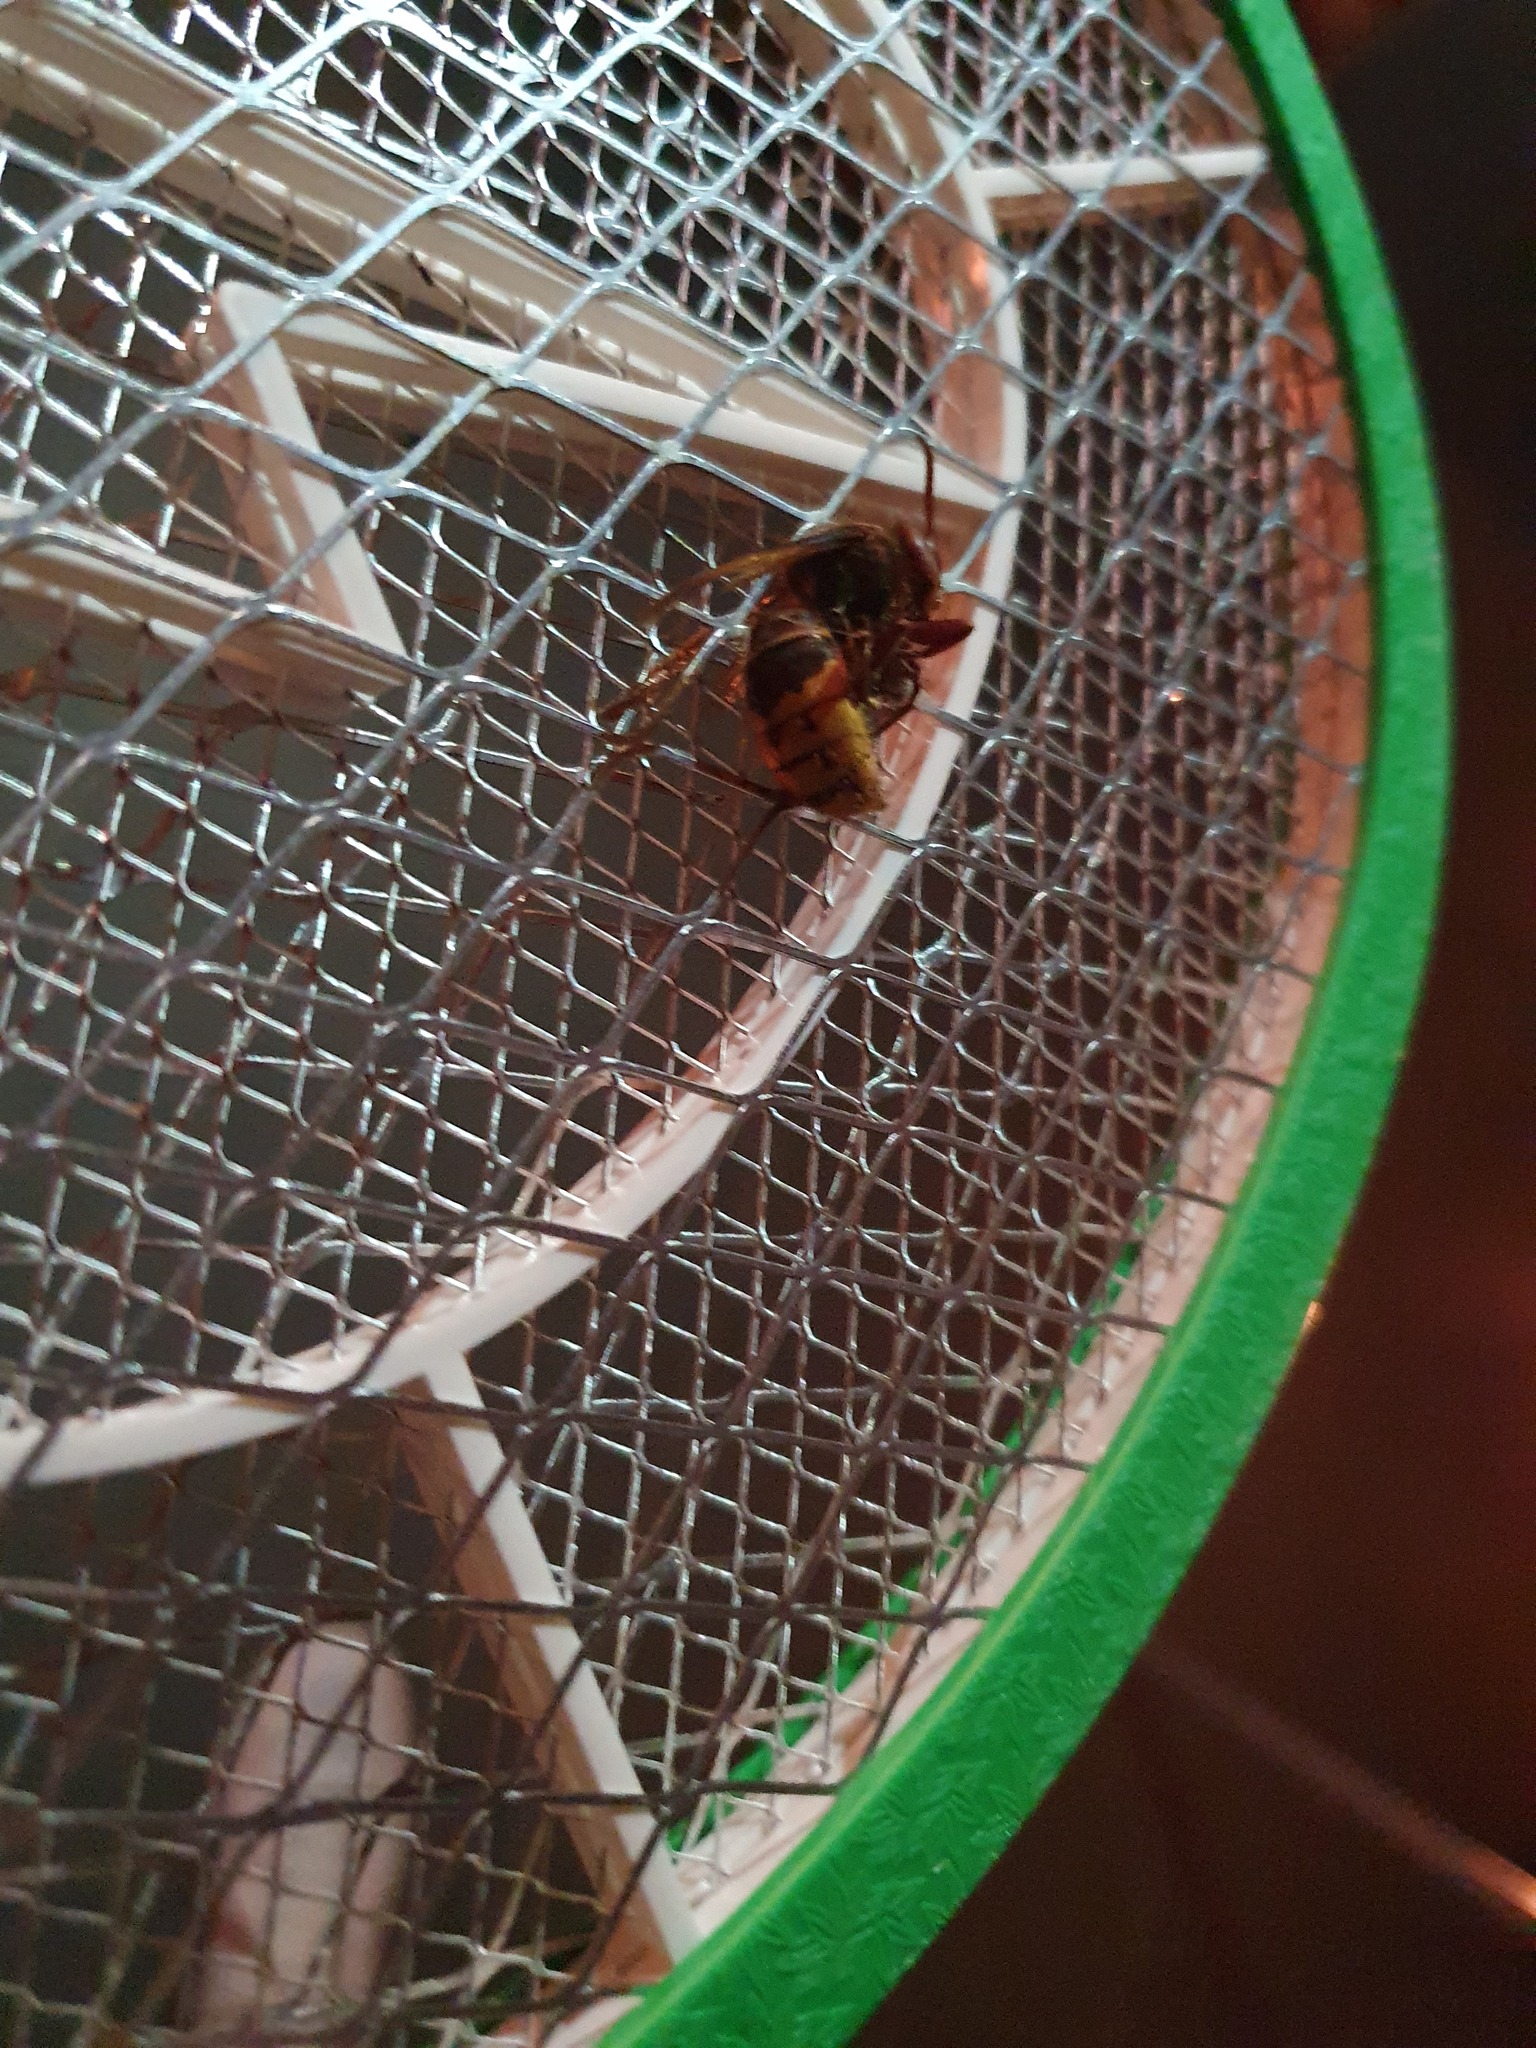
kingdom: Animalia
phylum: Arthropoda
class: Insecta
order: Hymenoptera
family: Vespidae
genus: Vespa
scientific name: Vespa crabro
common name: Hornet
